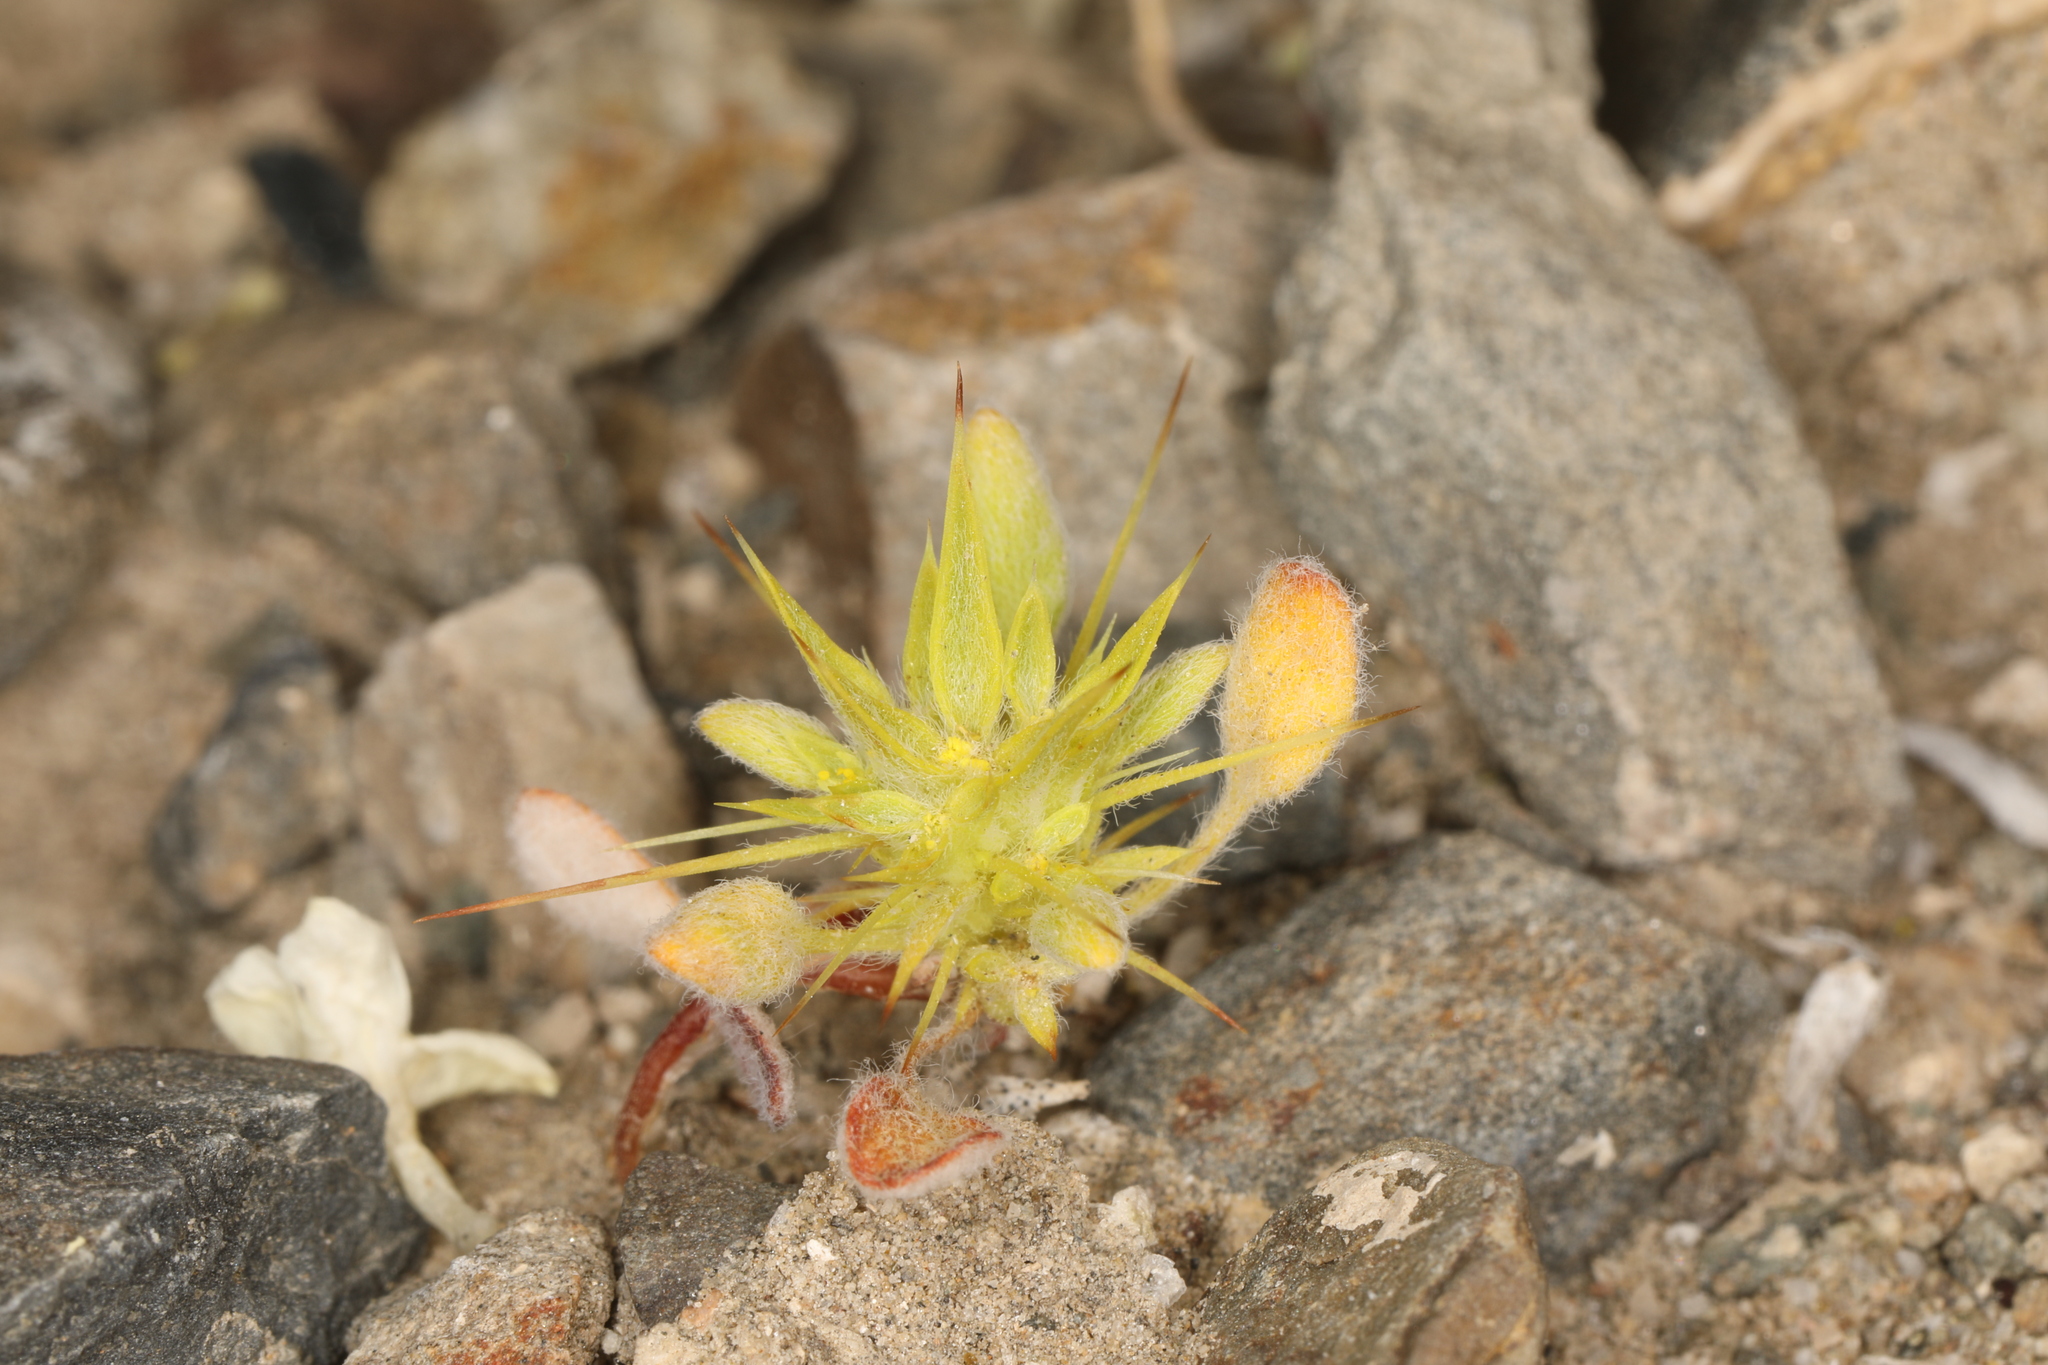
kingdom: Plantae
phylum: Tracheophyta
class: Magnoliopsida
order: Caryophyllales
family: Polygonaceae
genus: Chorizanthe
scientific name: Chorizanthe rigida
